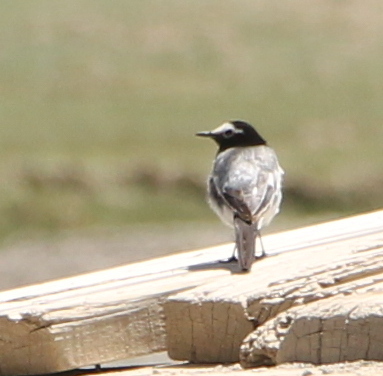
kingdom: Animalia
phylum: Chordata
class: Aves
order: Passeriformes
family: Motacillidae
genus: Motacilla
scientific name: Motacilla alba
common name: White wagtail
